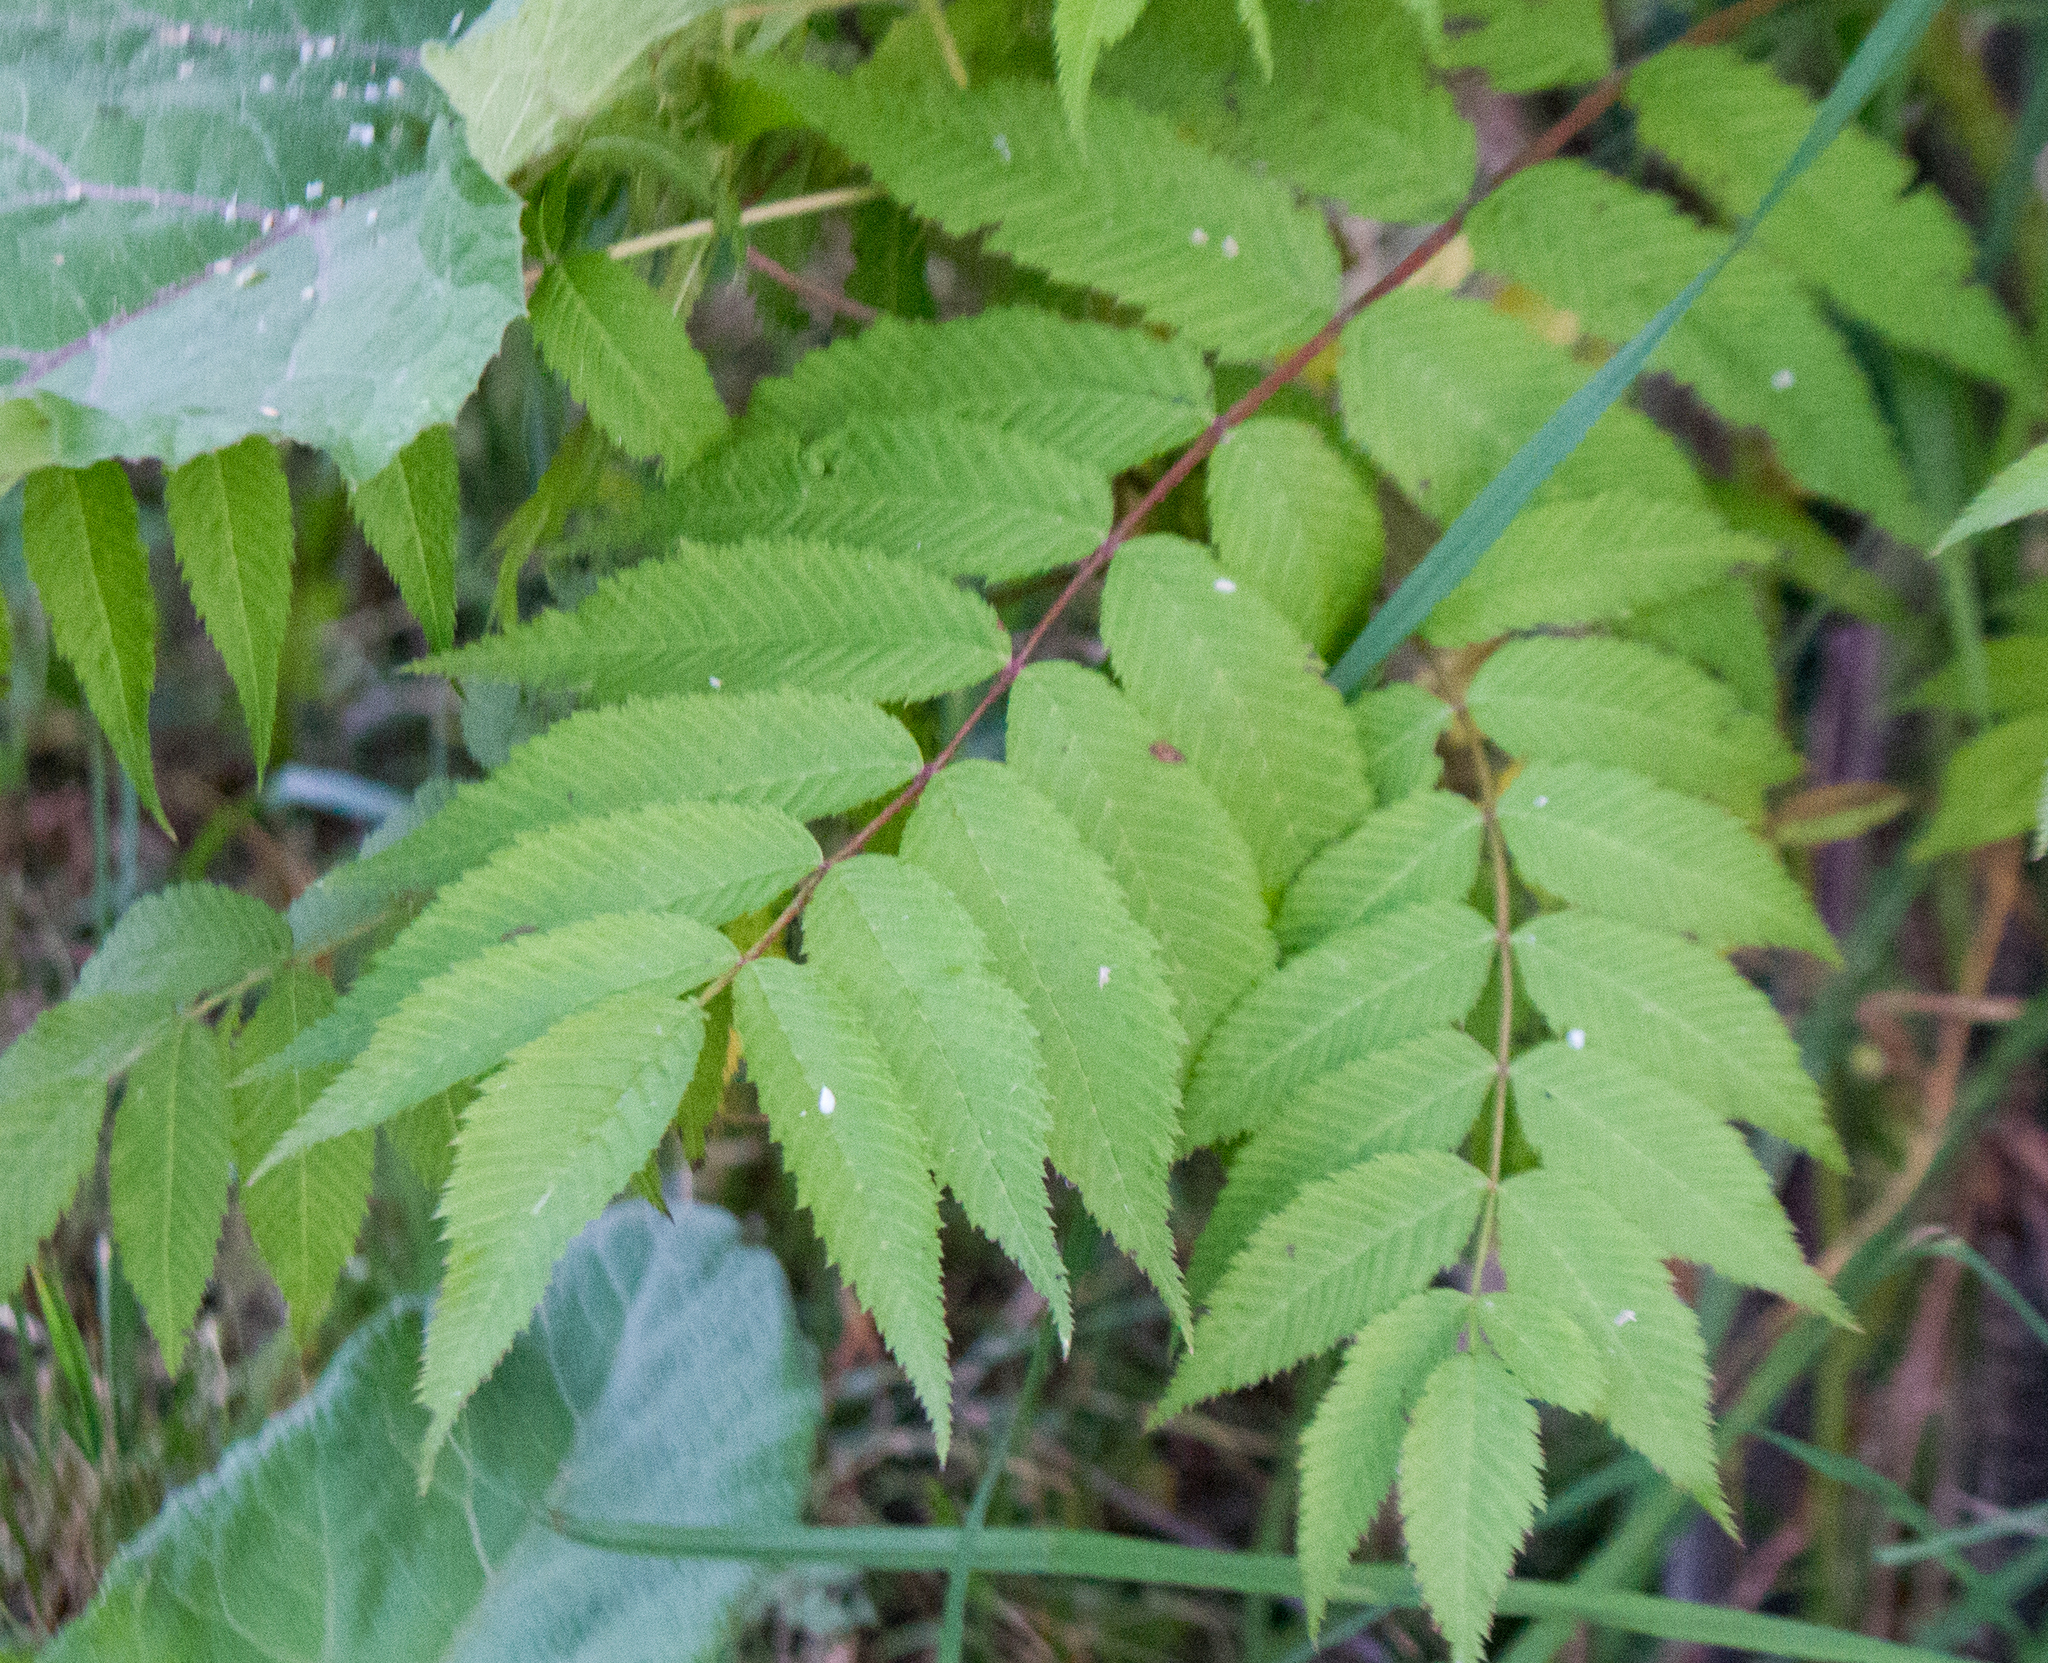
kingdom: Plantae
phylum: Tracheophyta
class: Magnoliopsida
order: Rosales
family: Rosaceae
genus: Sorbaria
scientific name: Sorbaria sorbifolia
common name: False spiraea
